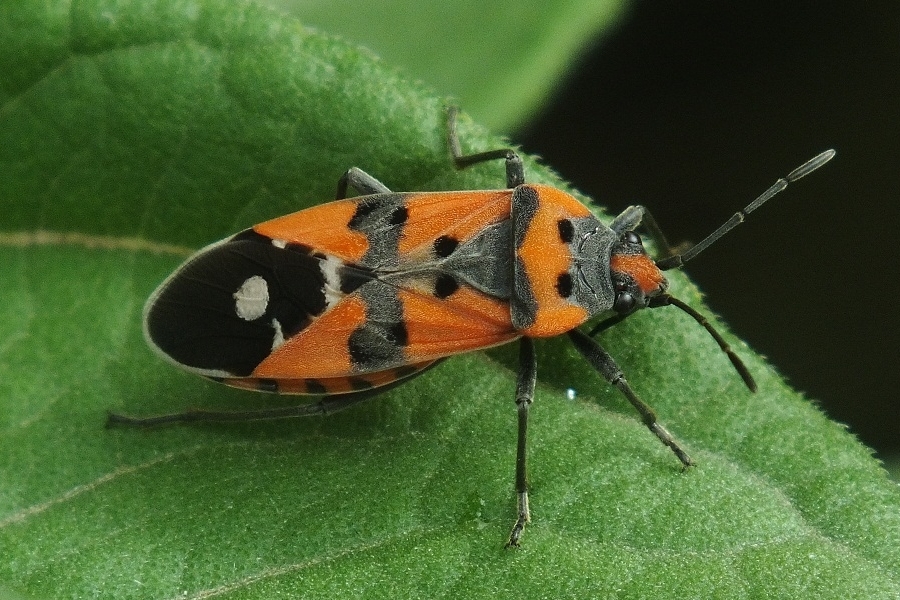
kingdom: Animalia
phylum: Arthropoda
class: Insecta
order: Hemiptera
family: Lygaeidae
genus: Lygaeus
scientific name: Lygaeus equestris
